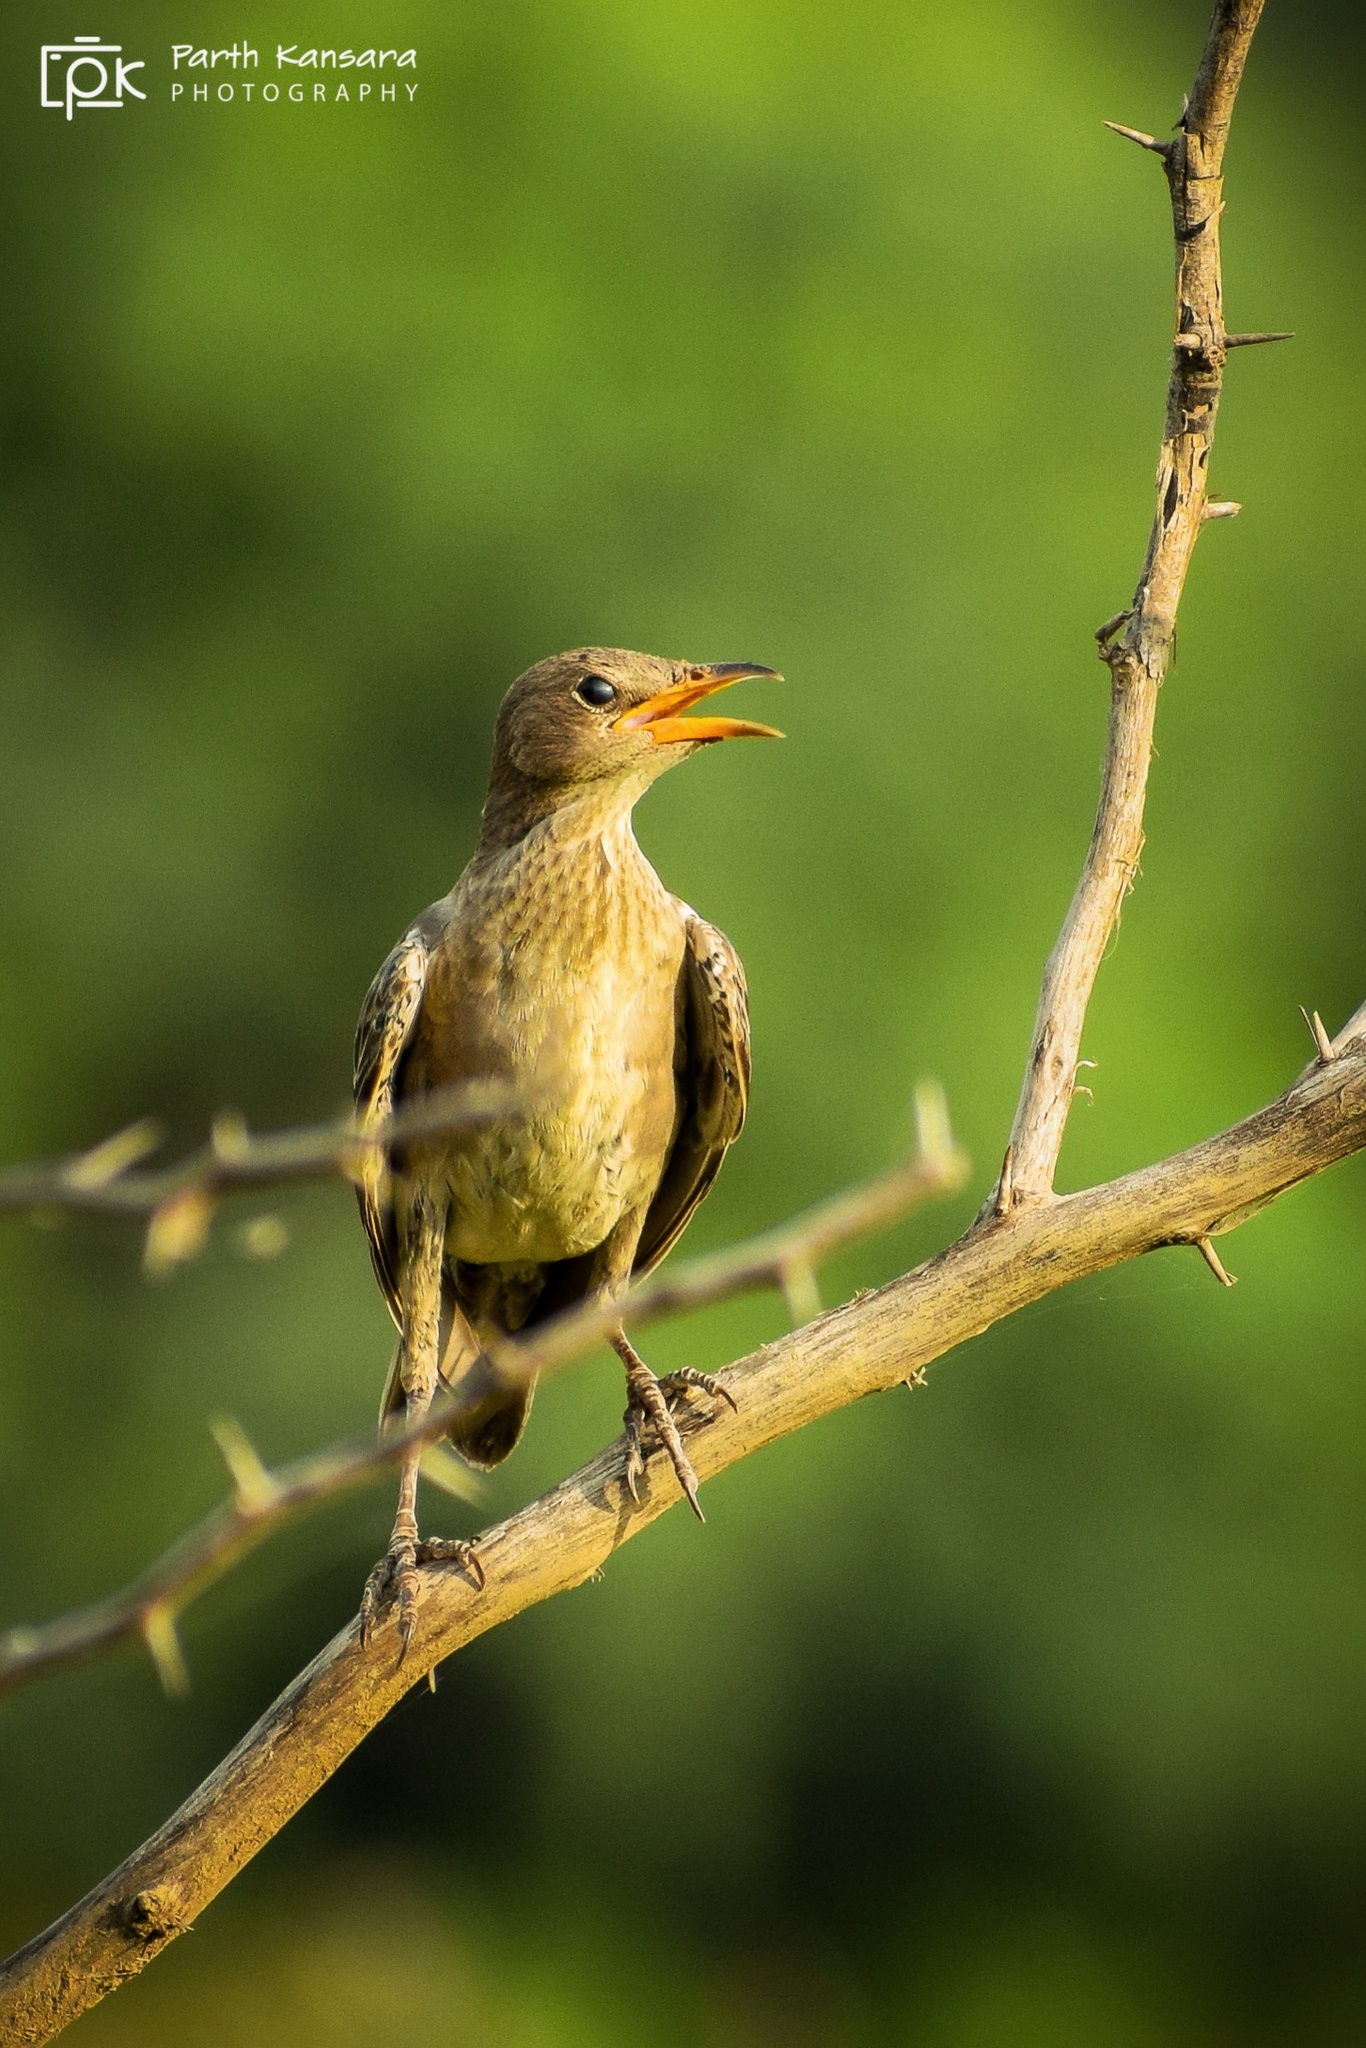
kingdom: Animalia
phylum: Chordata
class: Aves
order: Passeriformes
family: Sturnidae
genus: Pastor
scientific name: Pastor roseus
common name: Rosy starling
